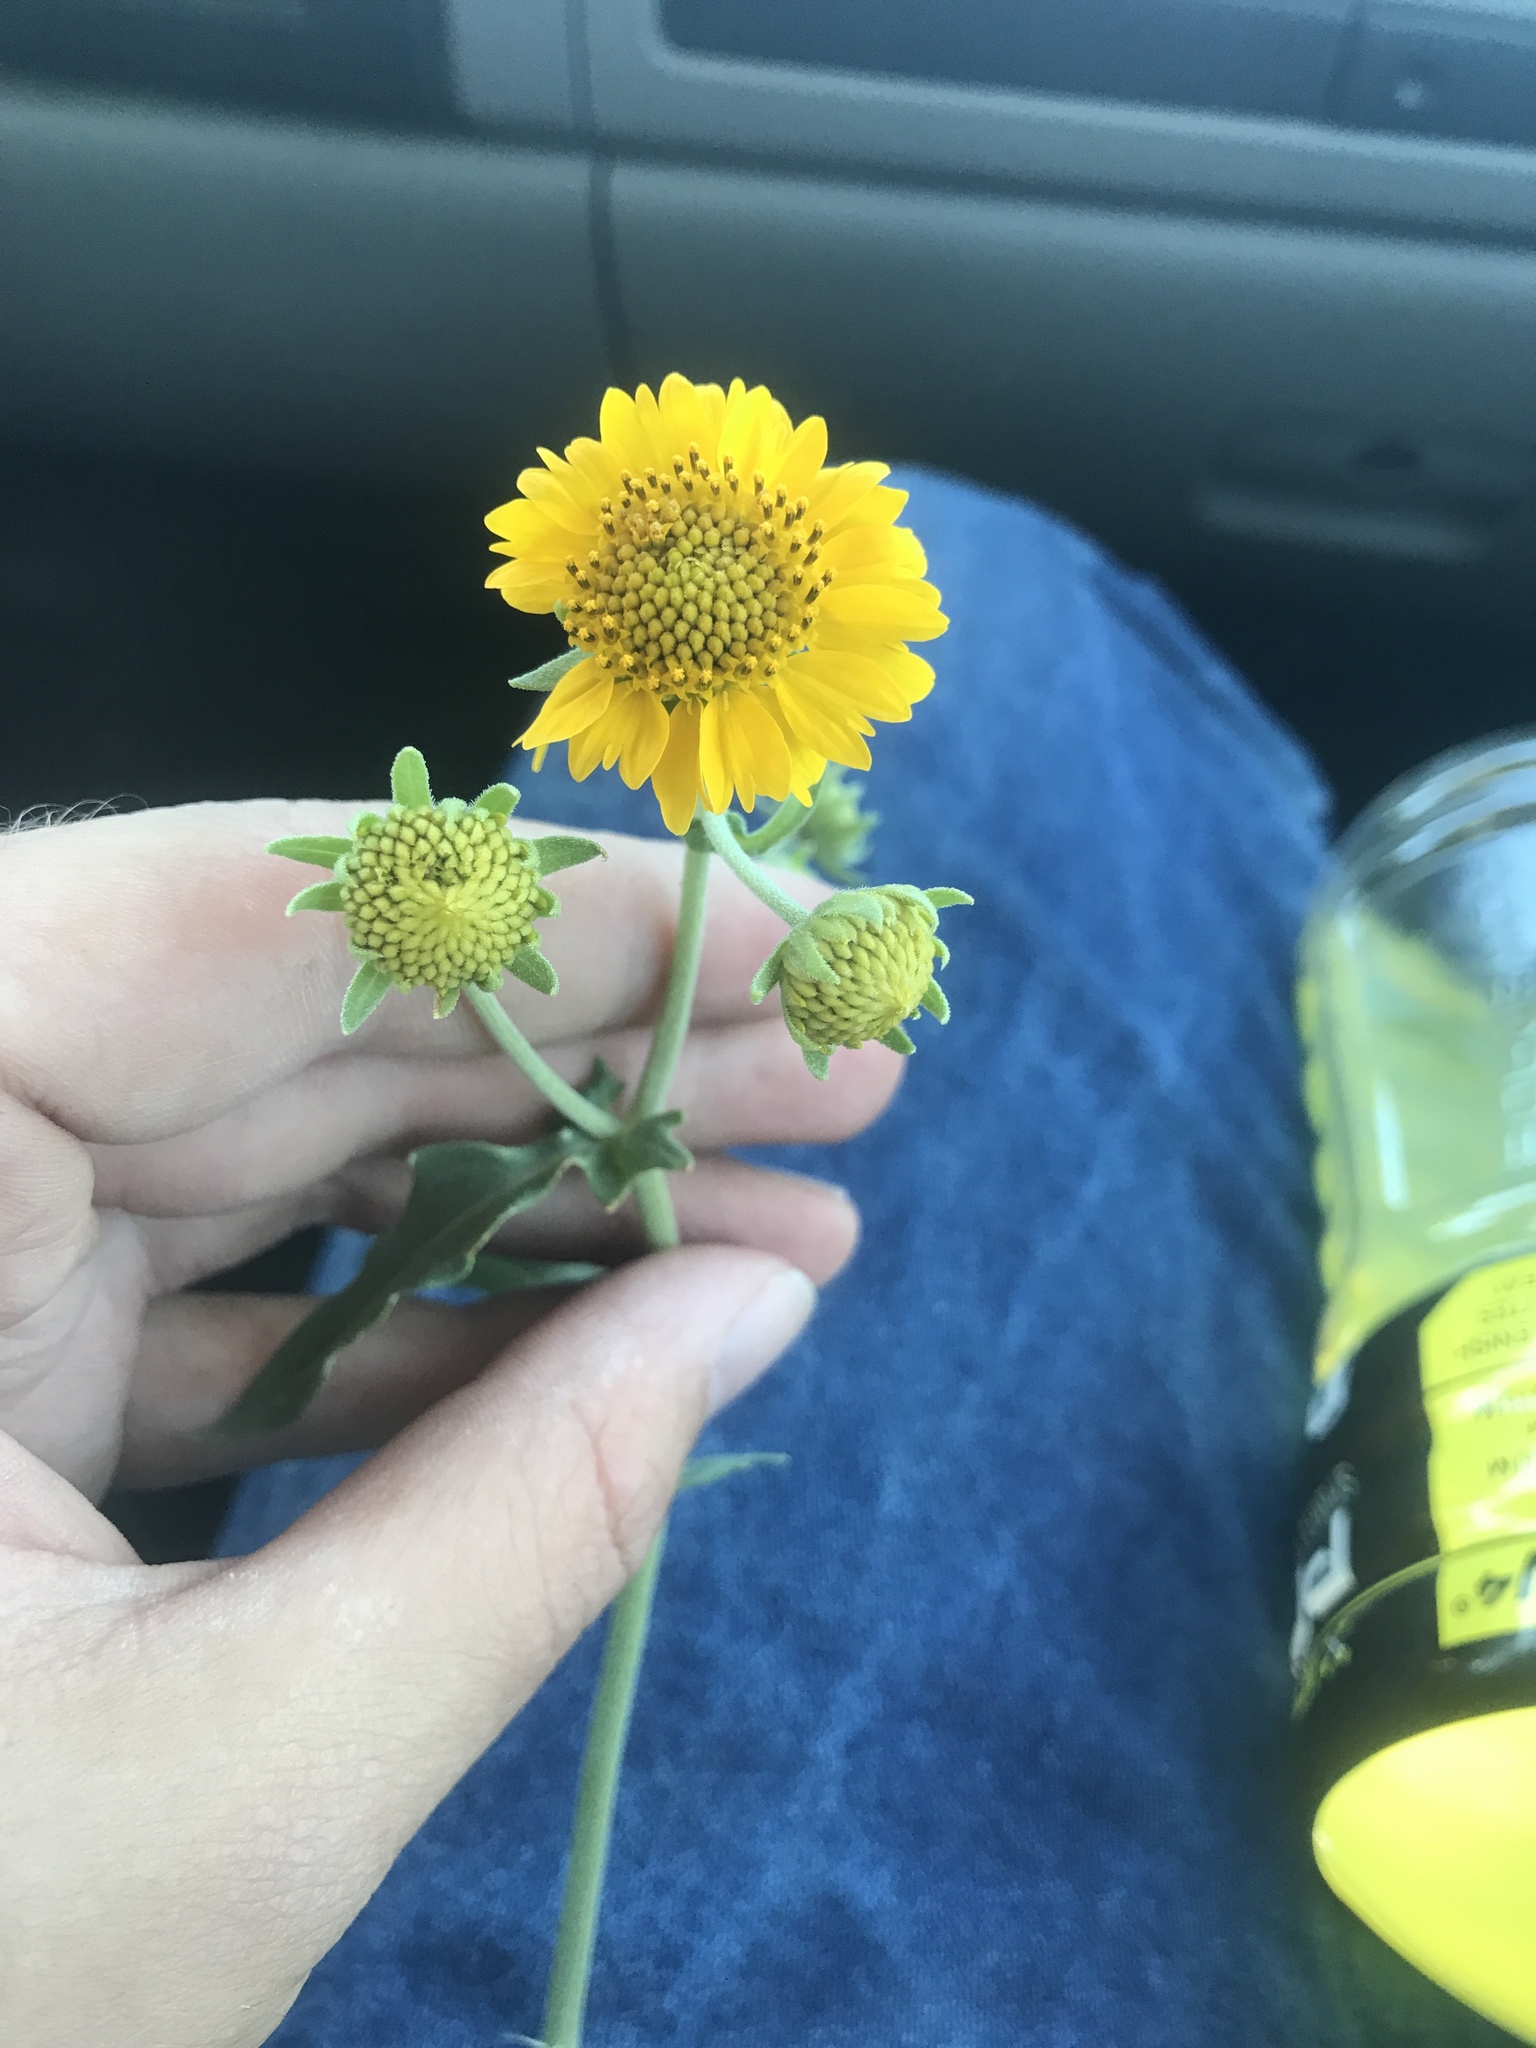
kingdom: Plantae
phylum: Tracheophyta
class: Magnoliopsida
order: Asterales
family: Asteraceae
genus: Verbesina
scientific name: Verbesina encelioides
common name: Golden crownbeard
